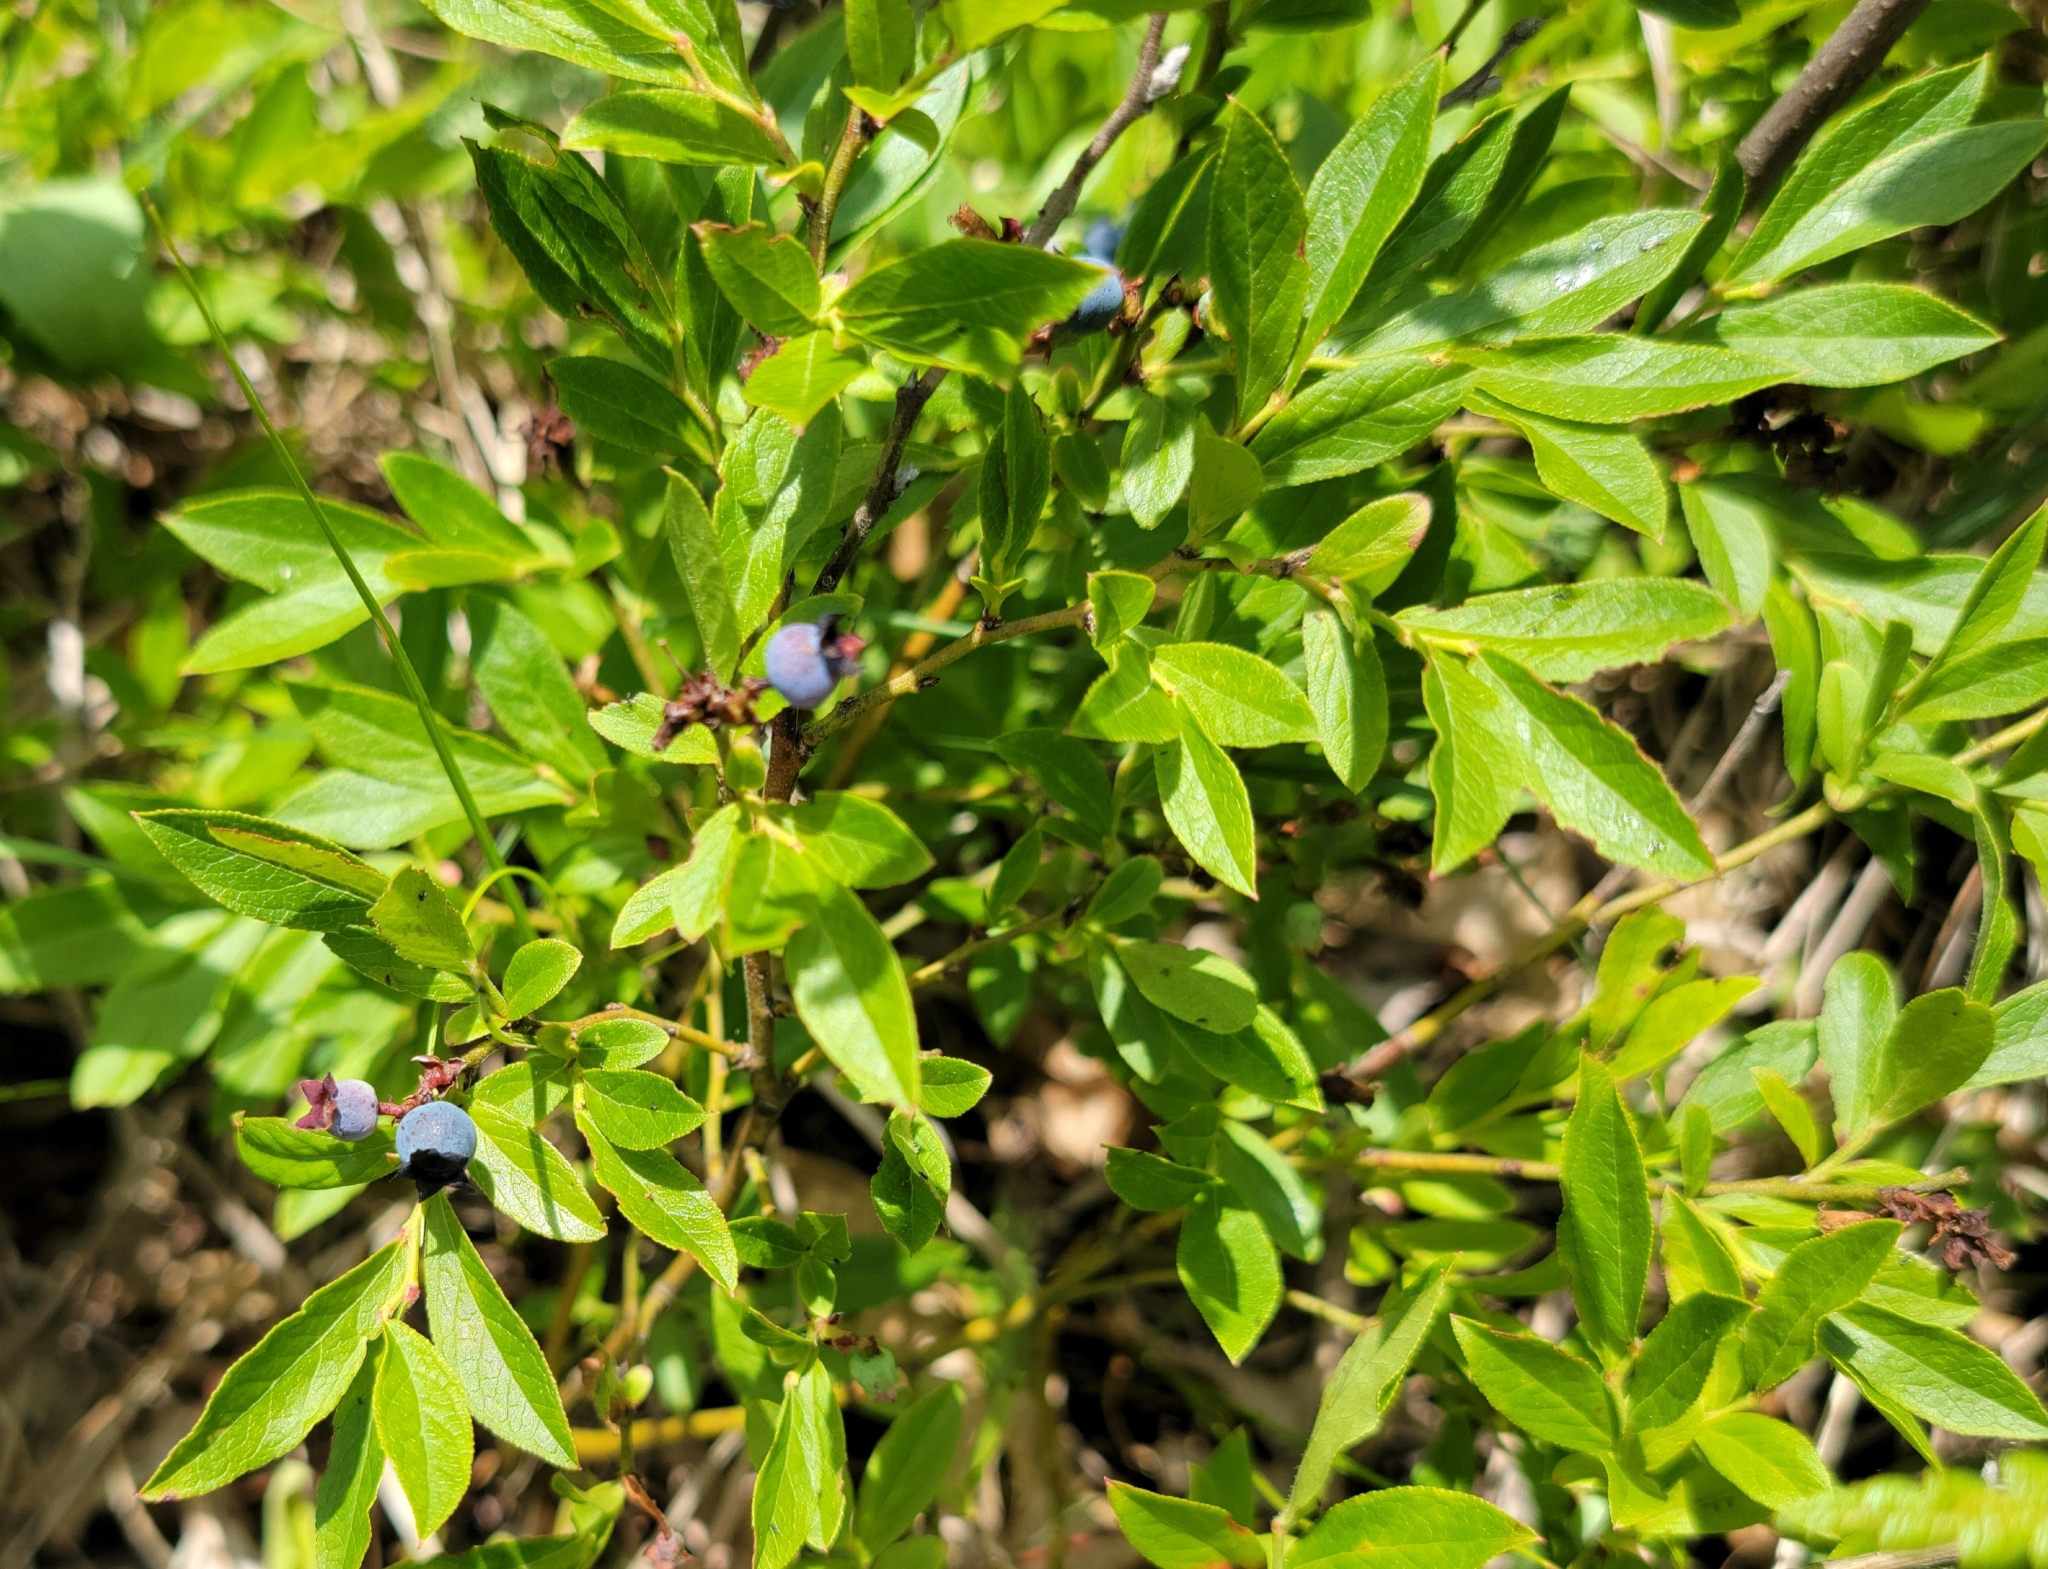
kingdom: Plantae
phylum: Tracheophyta
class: Magnoliopsida
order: Ericales
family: Ericaceae
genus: Vaccinium
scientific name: Vaccinium angustifolium
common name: Early lowbush blueberry
